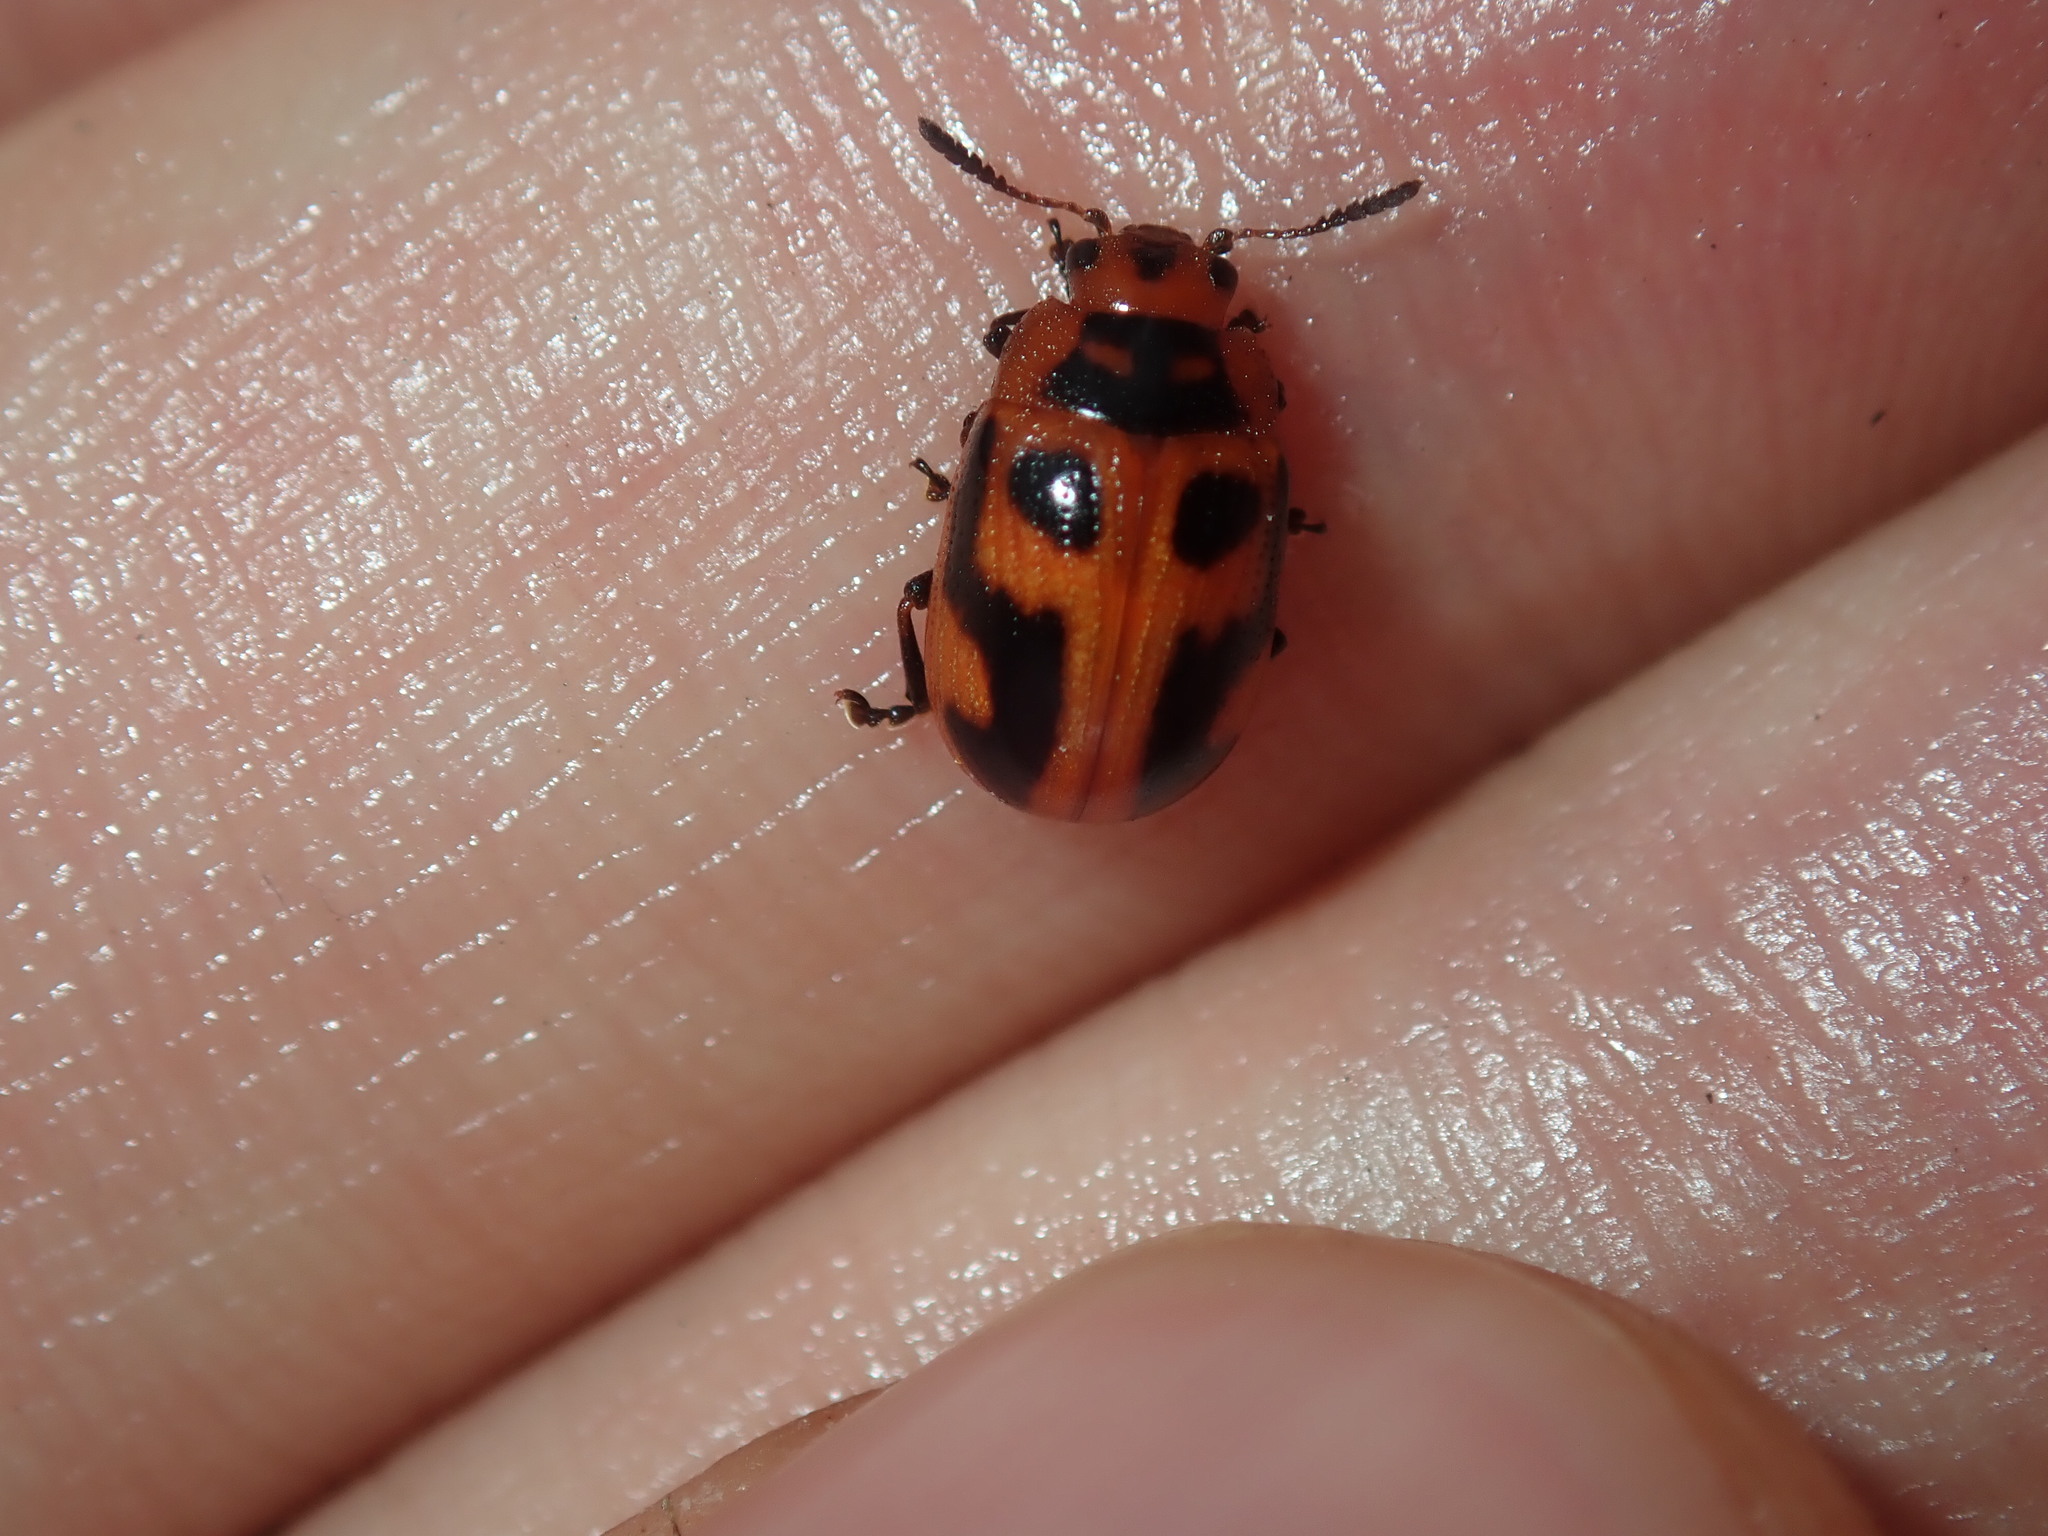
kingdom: Animalia
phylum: Arthropoda
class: Insecta
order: Coleoptera
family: Chrysomelidae
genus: Calomela
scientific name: Calomela
